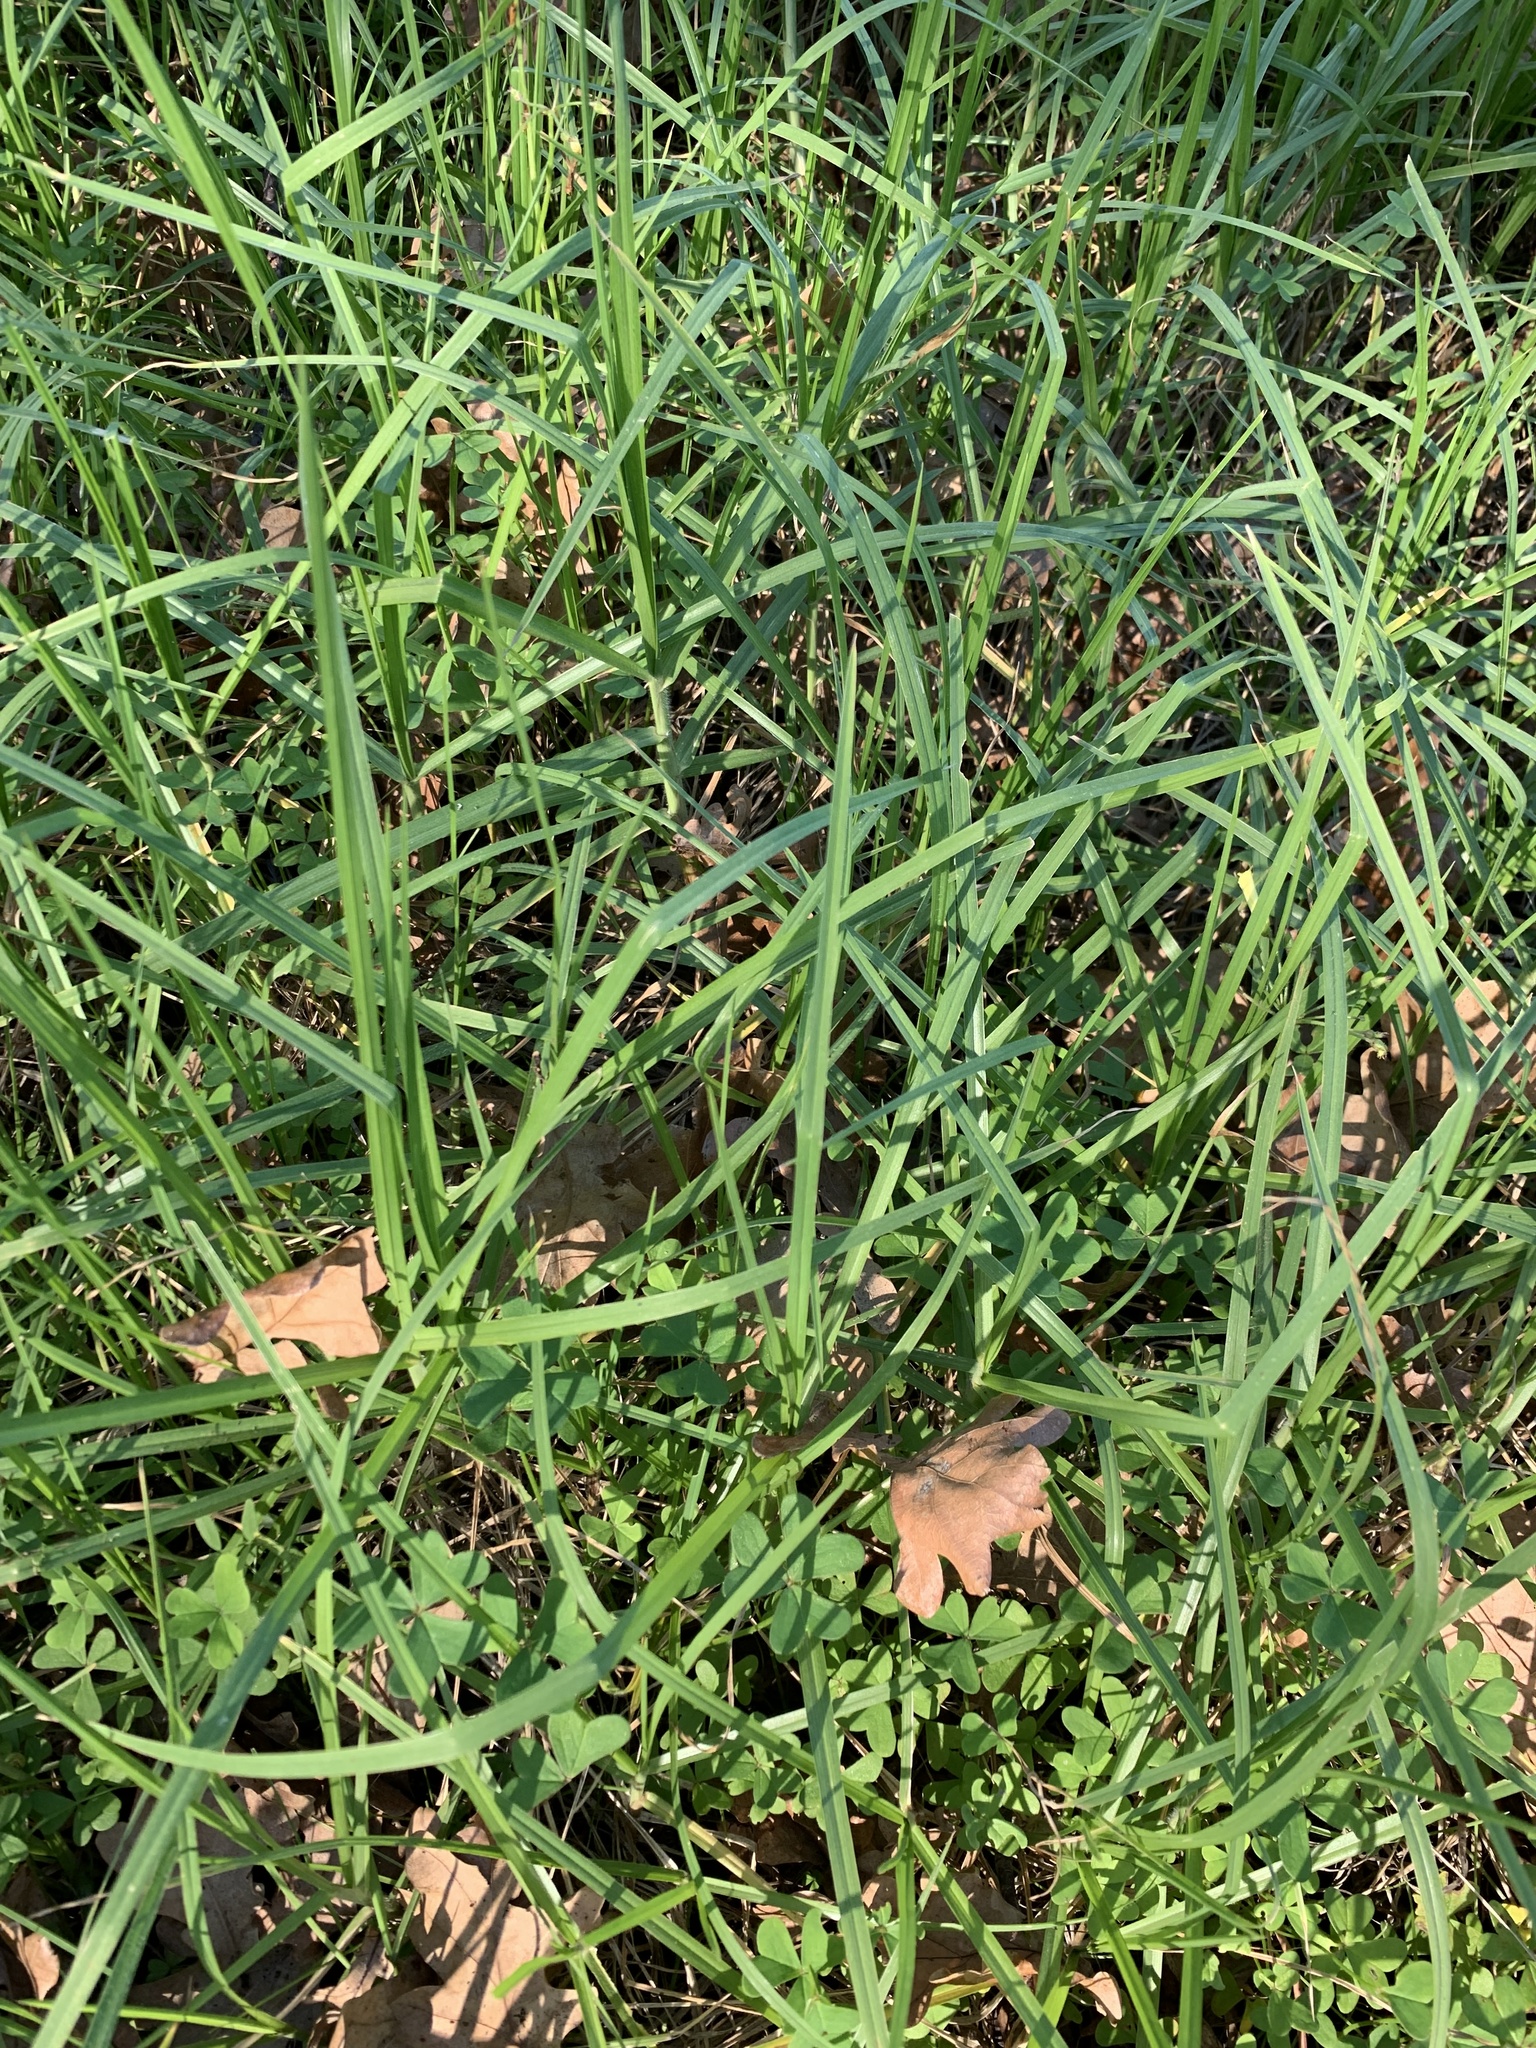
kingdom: Plantae
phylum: Tracheophyta
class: Liliopsida
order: Poales
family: Poaceae
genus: Cenchrus
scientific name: Cenchrus clandestinus
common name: Kikuyugrass
